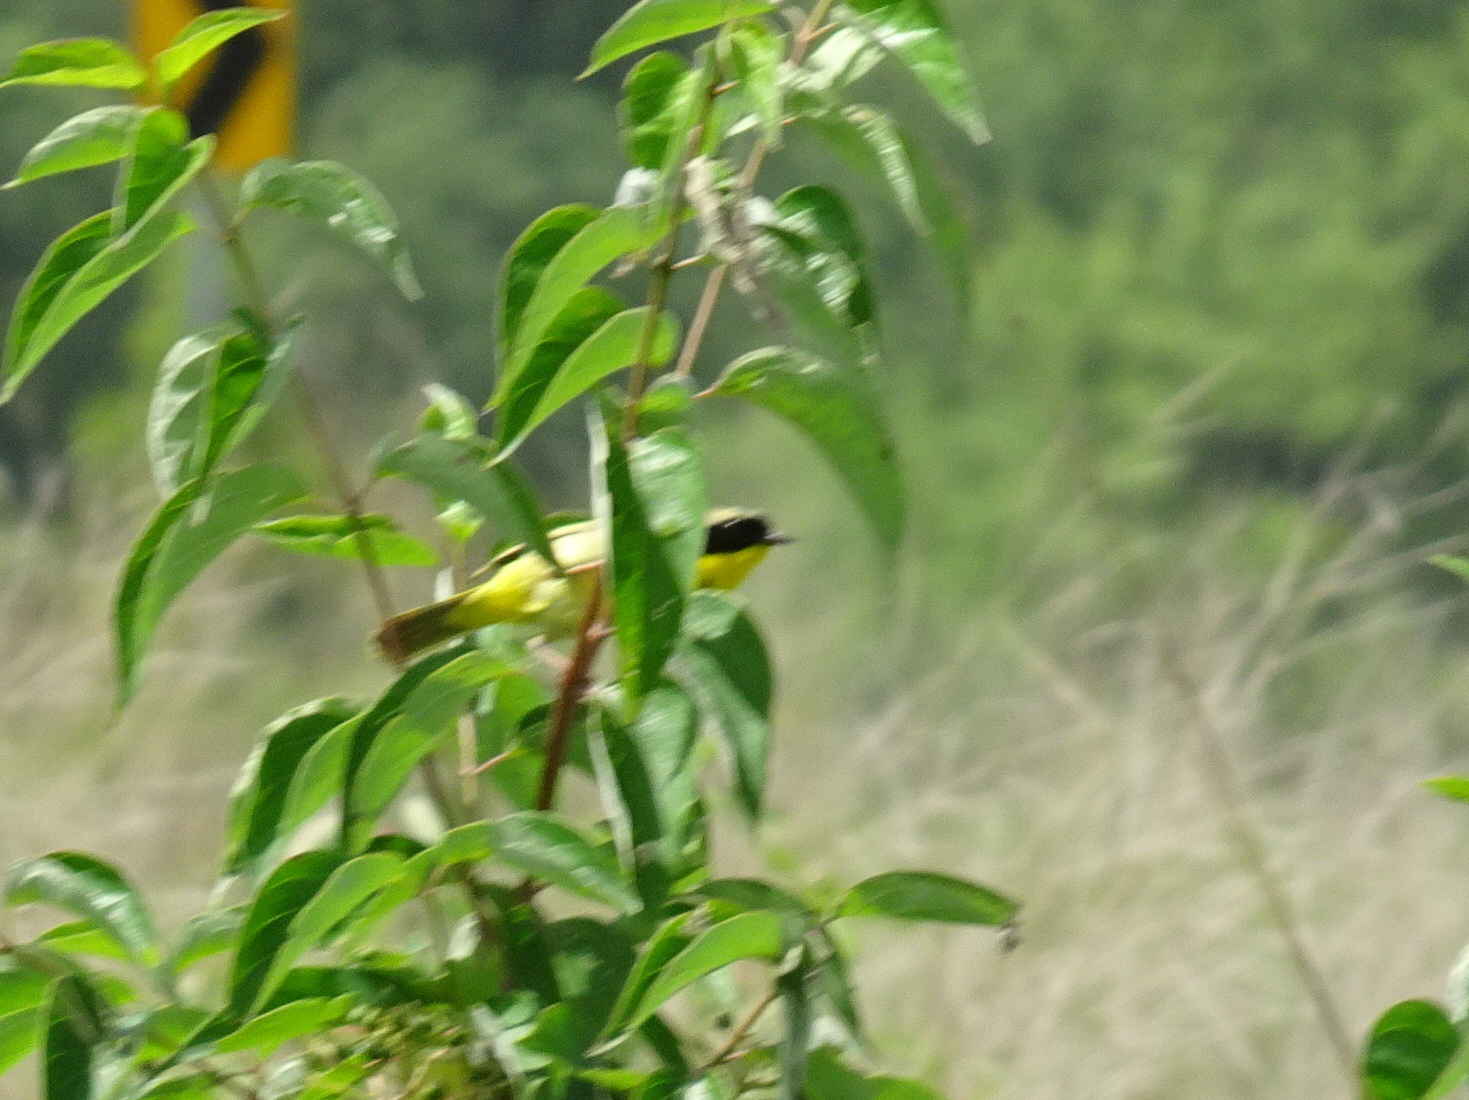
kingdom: Animalia
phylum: Chordata
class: Aves
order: Passeriformes
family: Parulidae
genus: Geothlypis
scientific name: Geothlypis trichas
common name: Common yellowthroat
